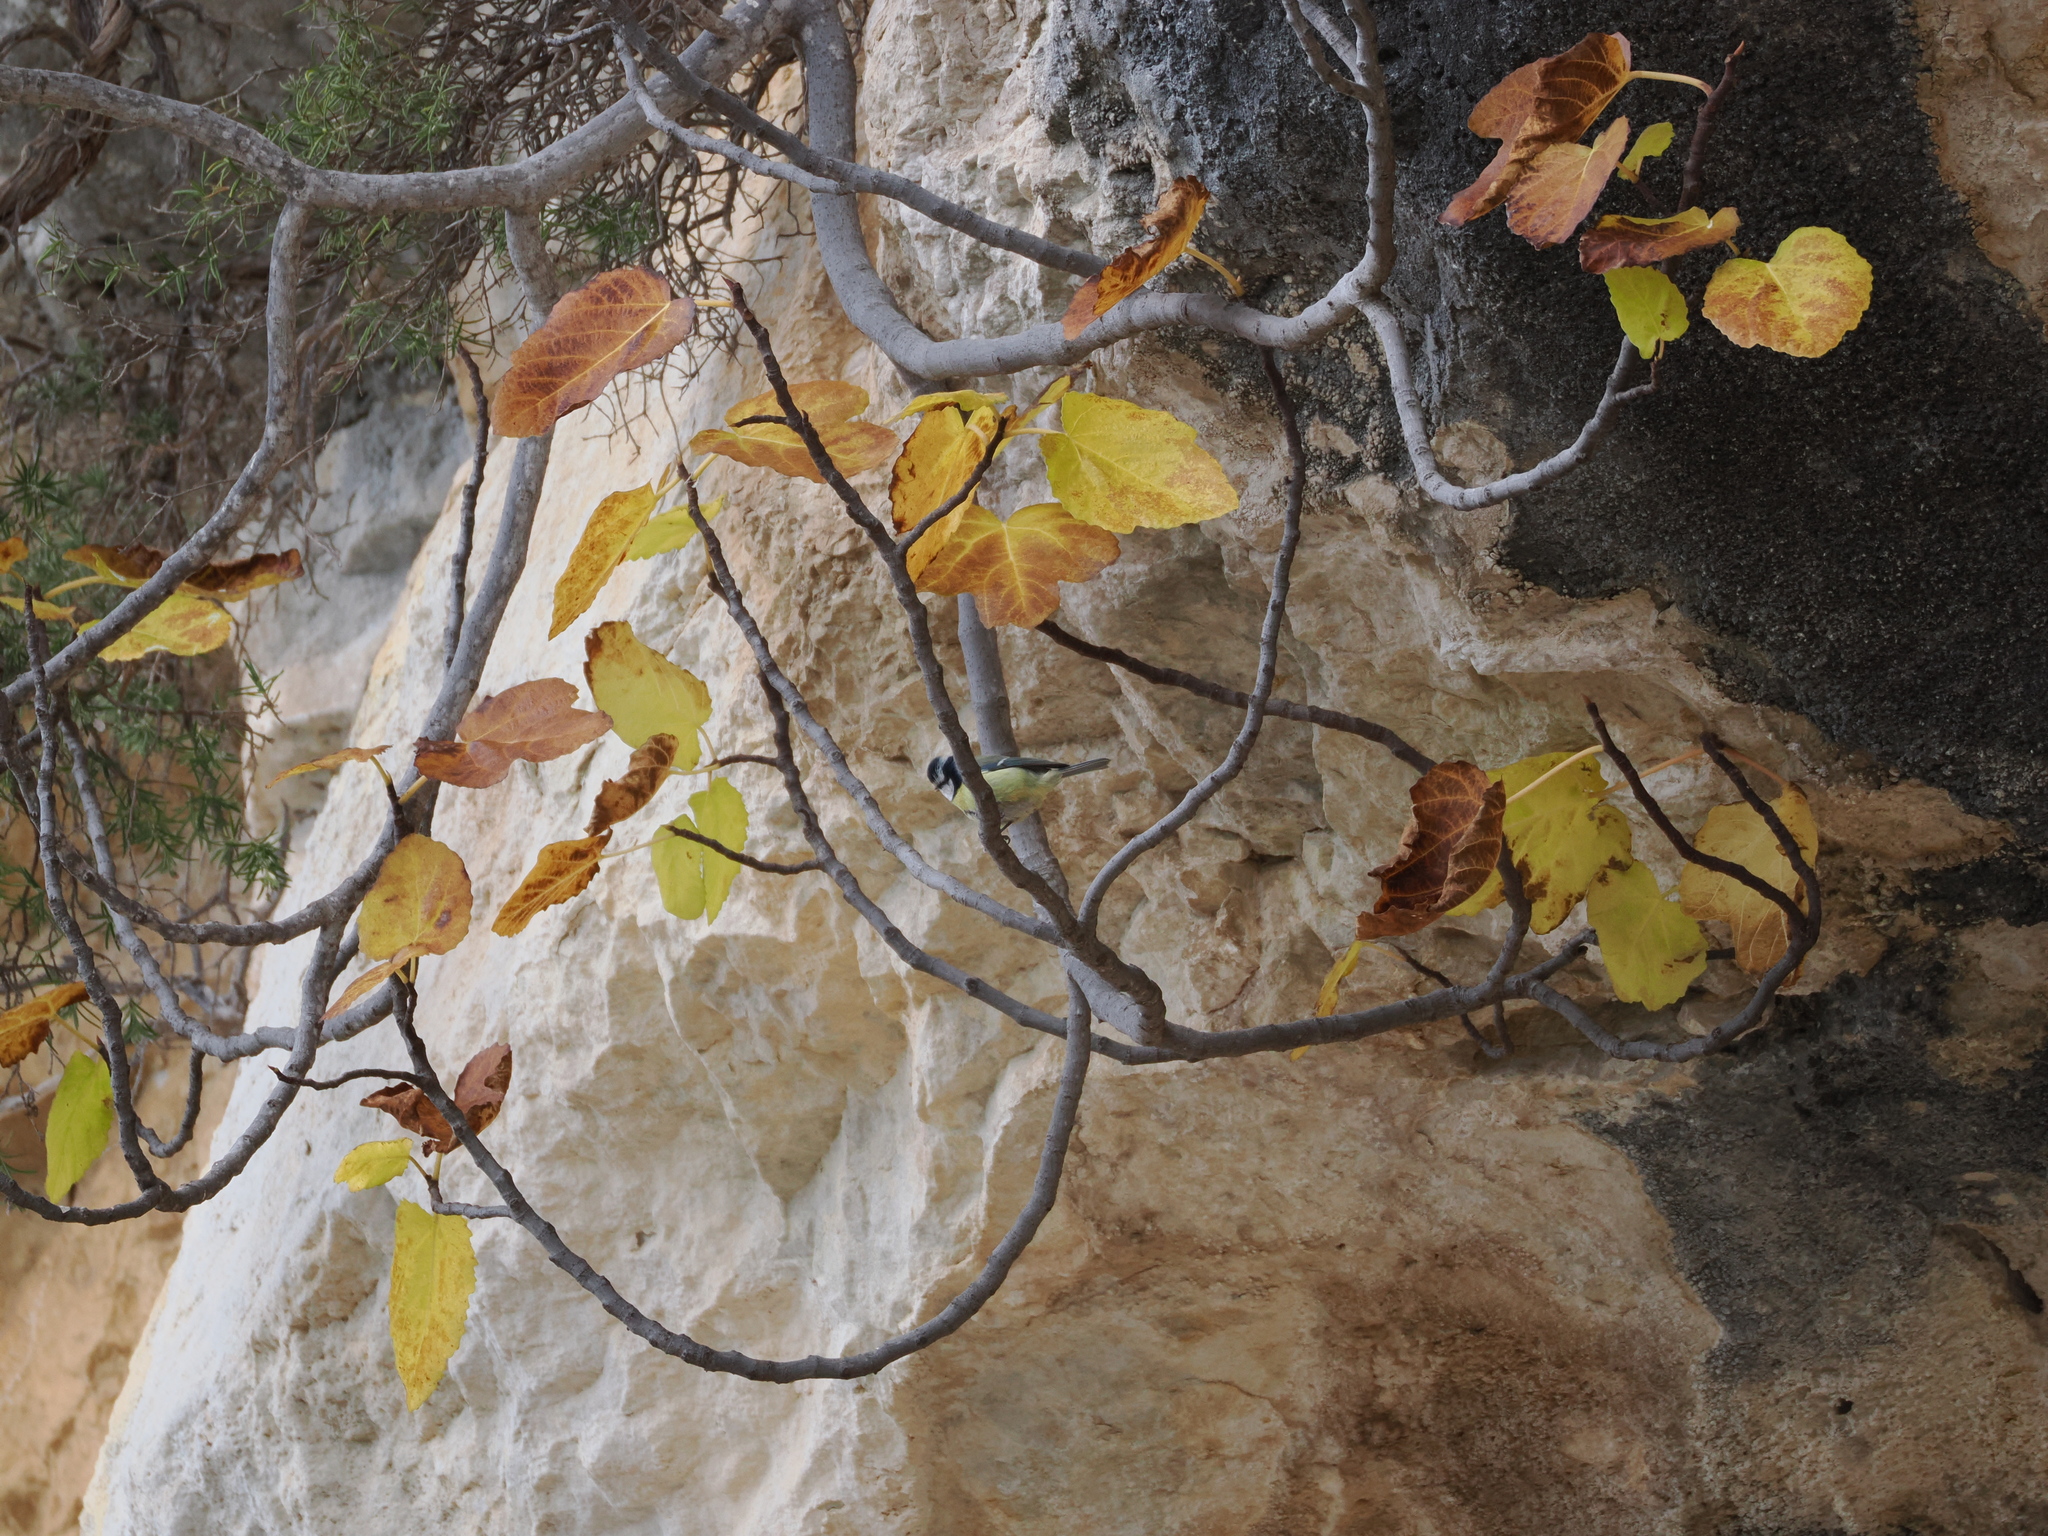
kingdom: Animalia
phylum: Chordata
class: Aves
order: Passeriformes
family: Paridae
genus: Cyanistes
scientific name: Cyanistes caeruleus
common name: Eurasian blue tit
